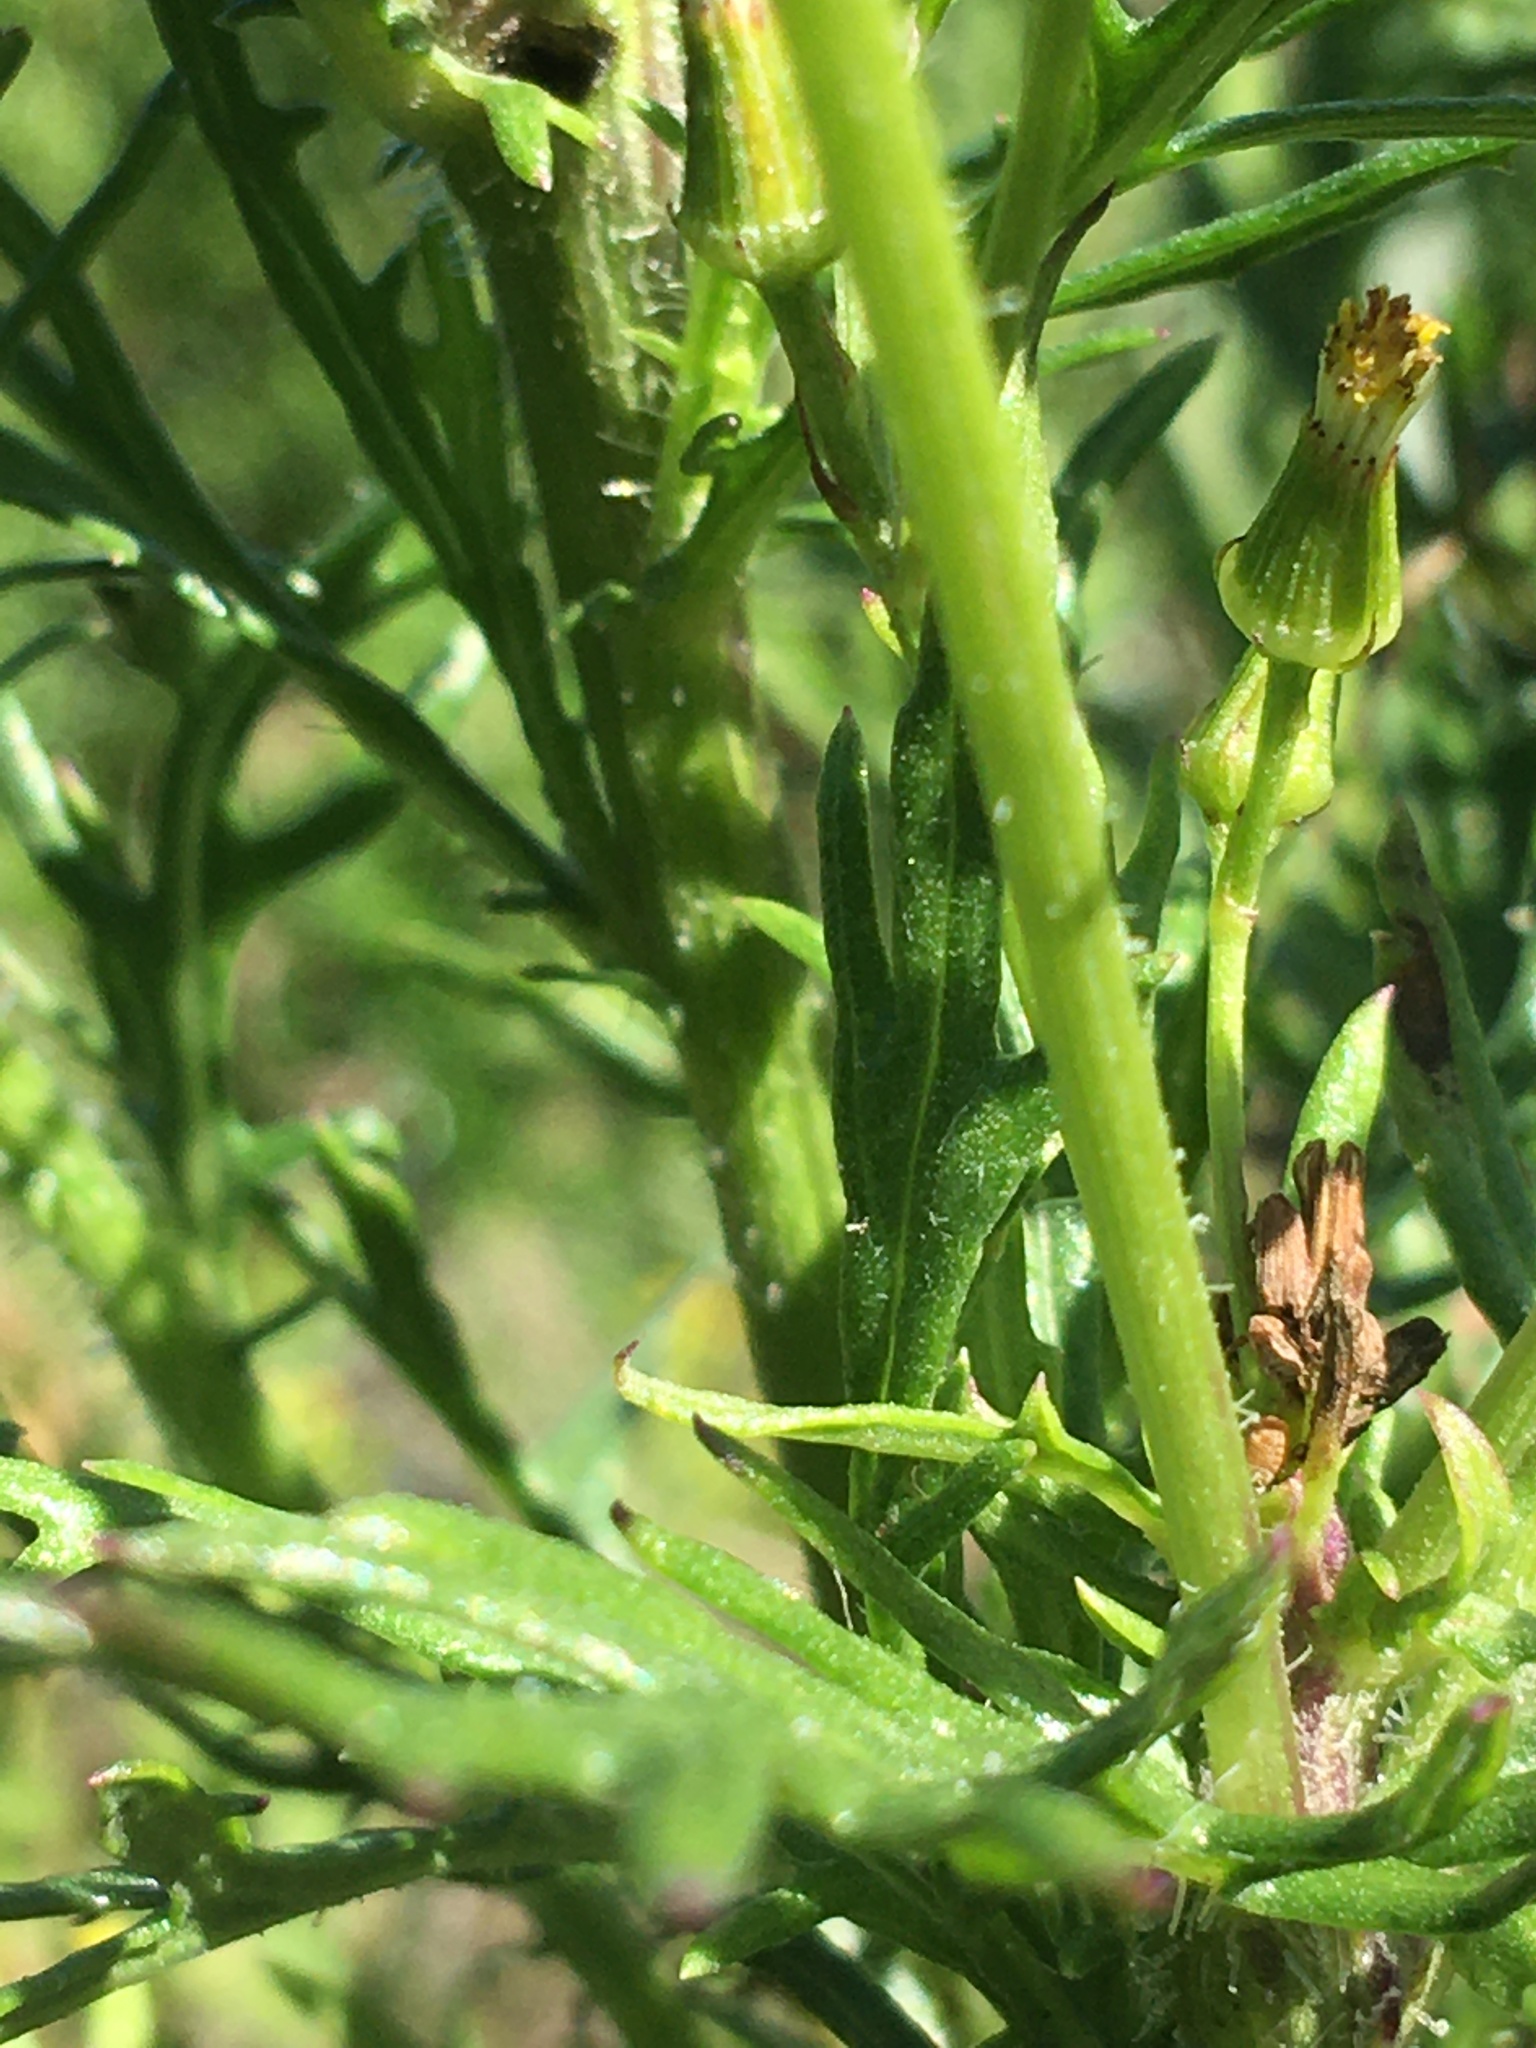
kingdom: Plantae
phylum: Tracheophyta
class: Magnoliopsida
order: Asterales
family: Asteraceae
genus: Senecio
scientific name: Senecio esleri
